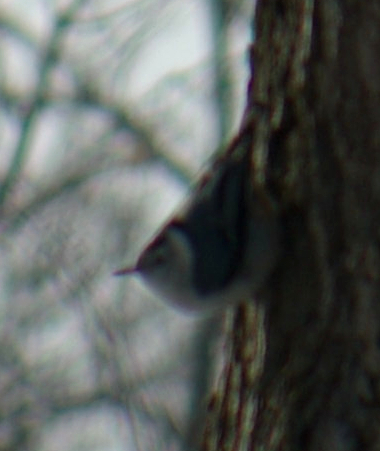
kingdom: Animalia
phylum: Chordata
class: Aves
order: Passeriformes
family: Sittidae
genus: Sitta
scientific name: Sitta carolinensis
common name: White-breasted nuthatch
